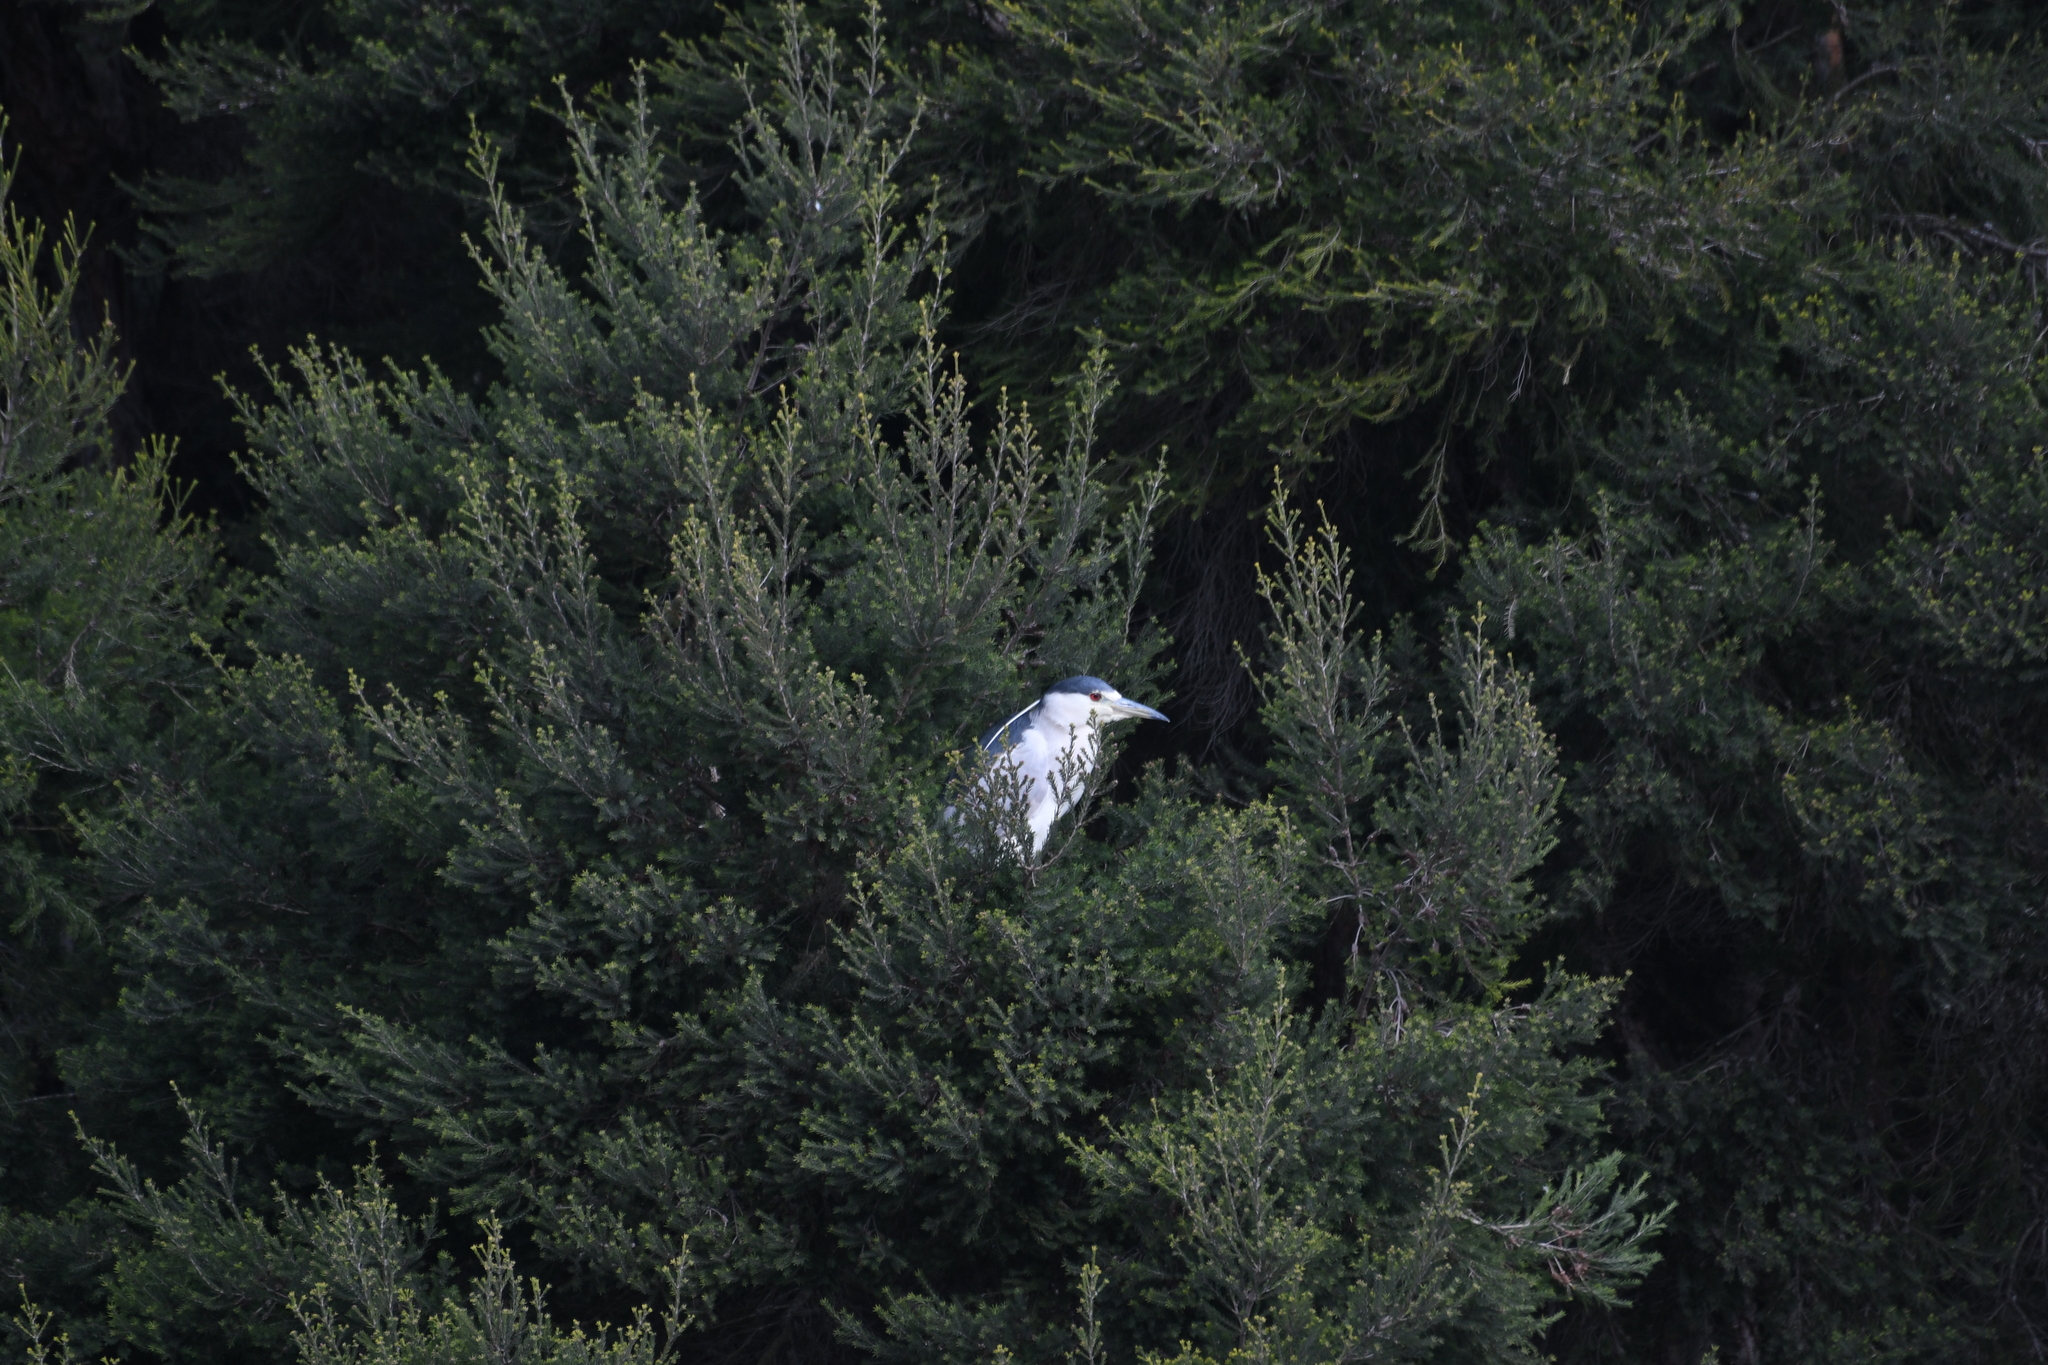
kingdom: Animalia
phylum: Chordata
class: Aves
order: Pelecaniformes
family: Ardeidae
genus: Nycticorax
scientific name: Nycticorax nycticorax
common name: Black-crowned night heron
